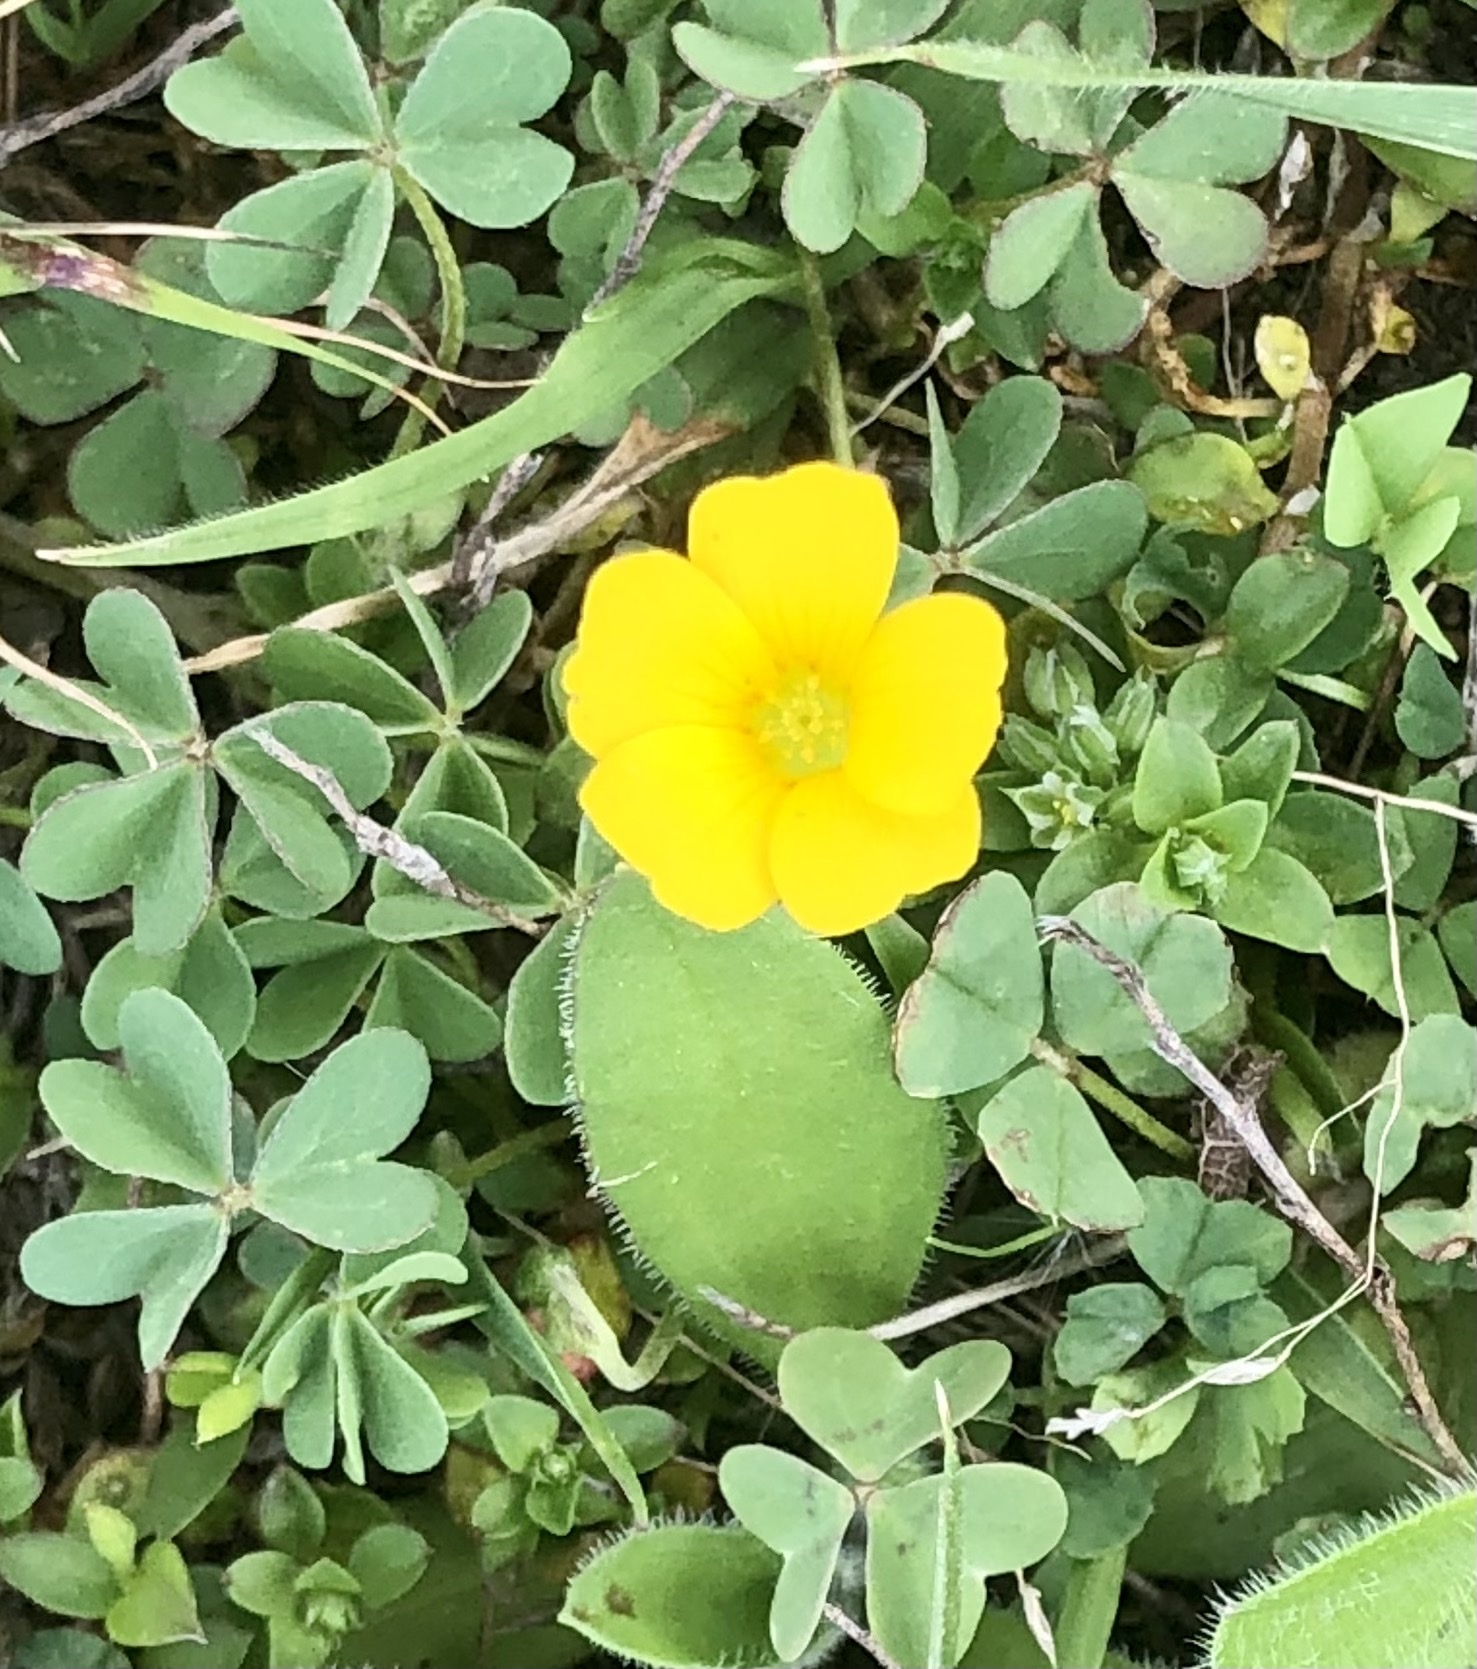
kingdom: Plantae
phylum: Tracheophyta
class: Magnoliopsida
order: Oxalidales
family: Oxalidaceae
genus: Oxalis
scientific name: Oxalis dillenii
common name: Sussex yellow-sorrel
